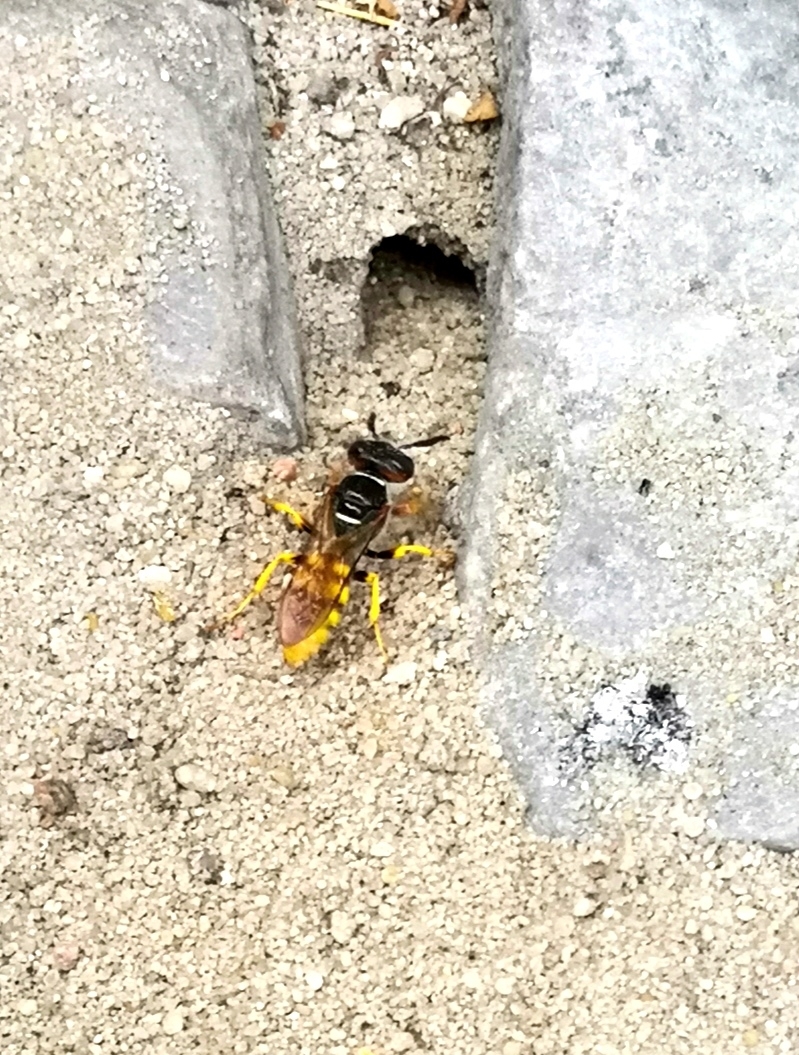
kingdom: Animalia
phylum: Arthropoda
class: Insecta
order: Hymenoptera
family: Crabronidae
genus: Philanthus
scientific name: Philanthus triangulum
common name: Bee wolf
